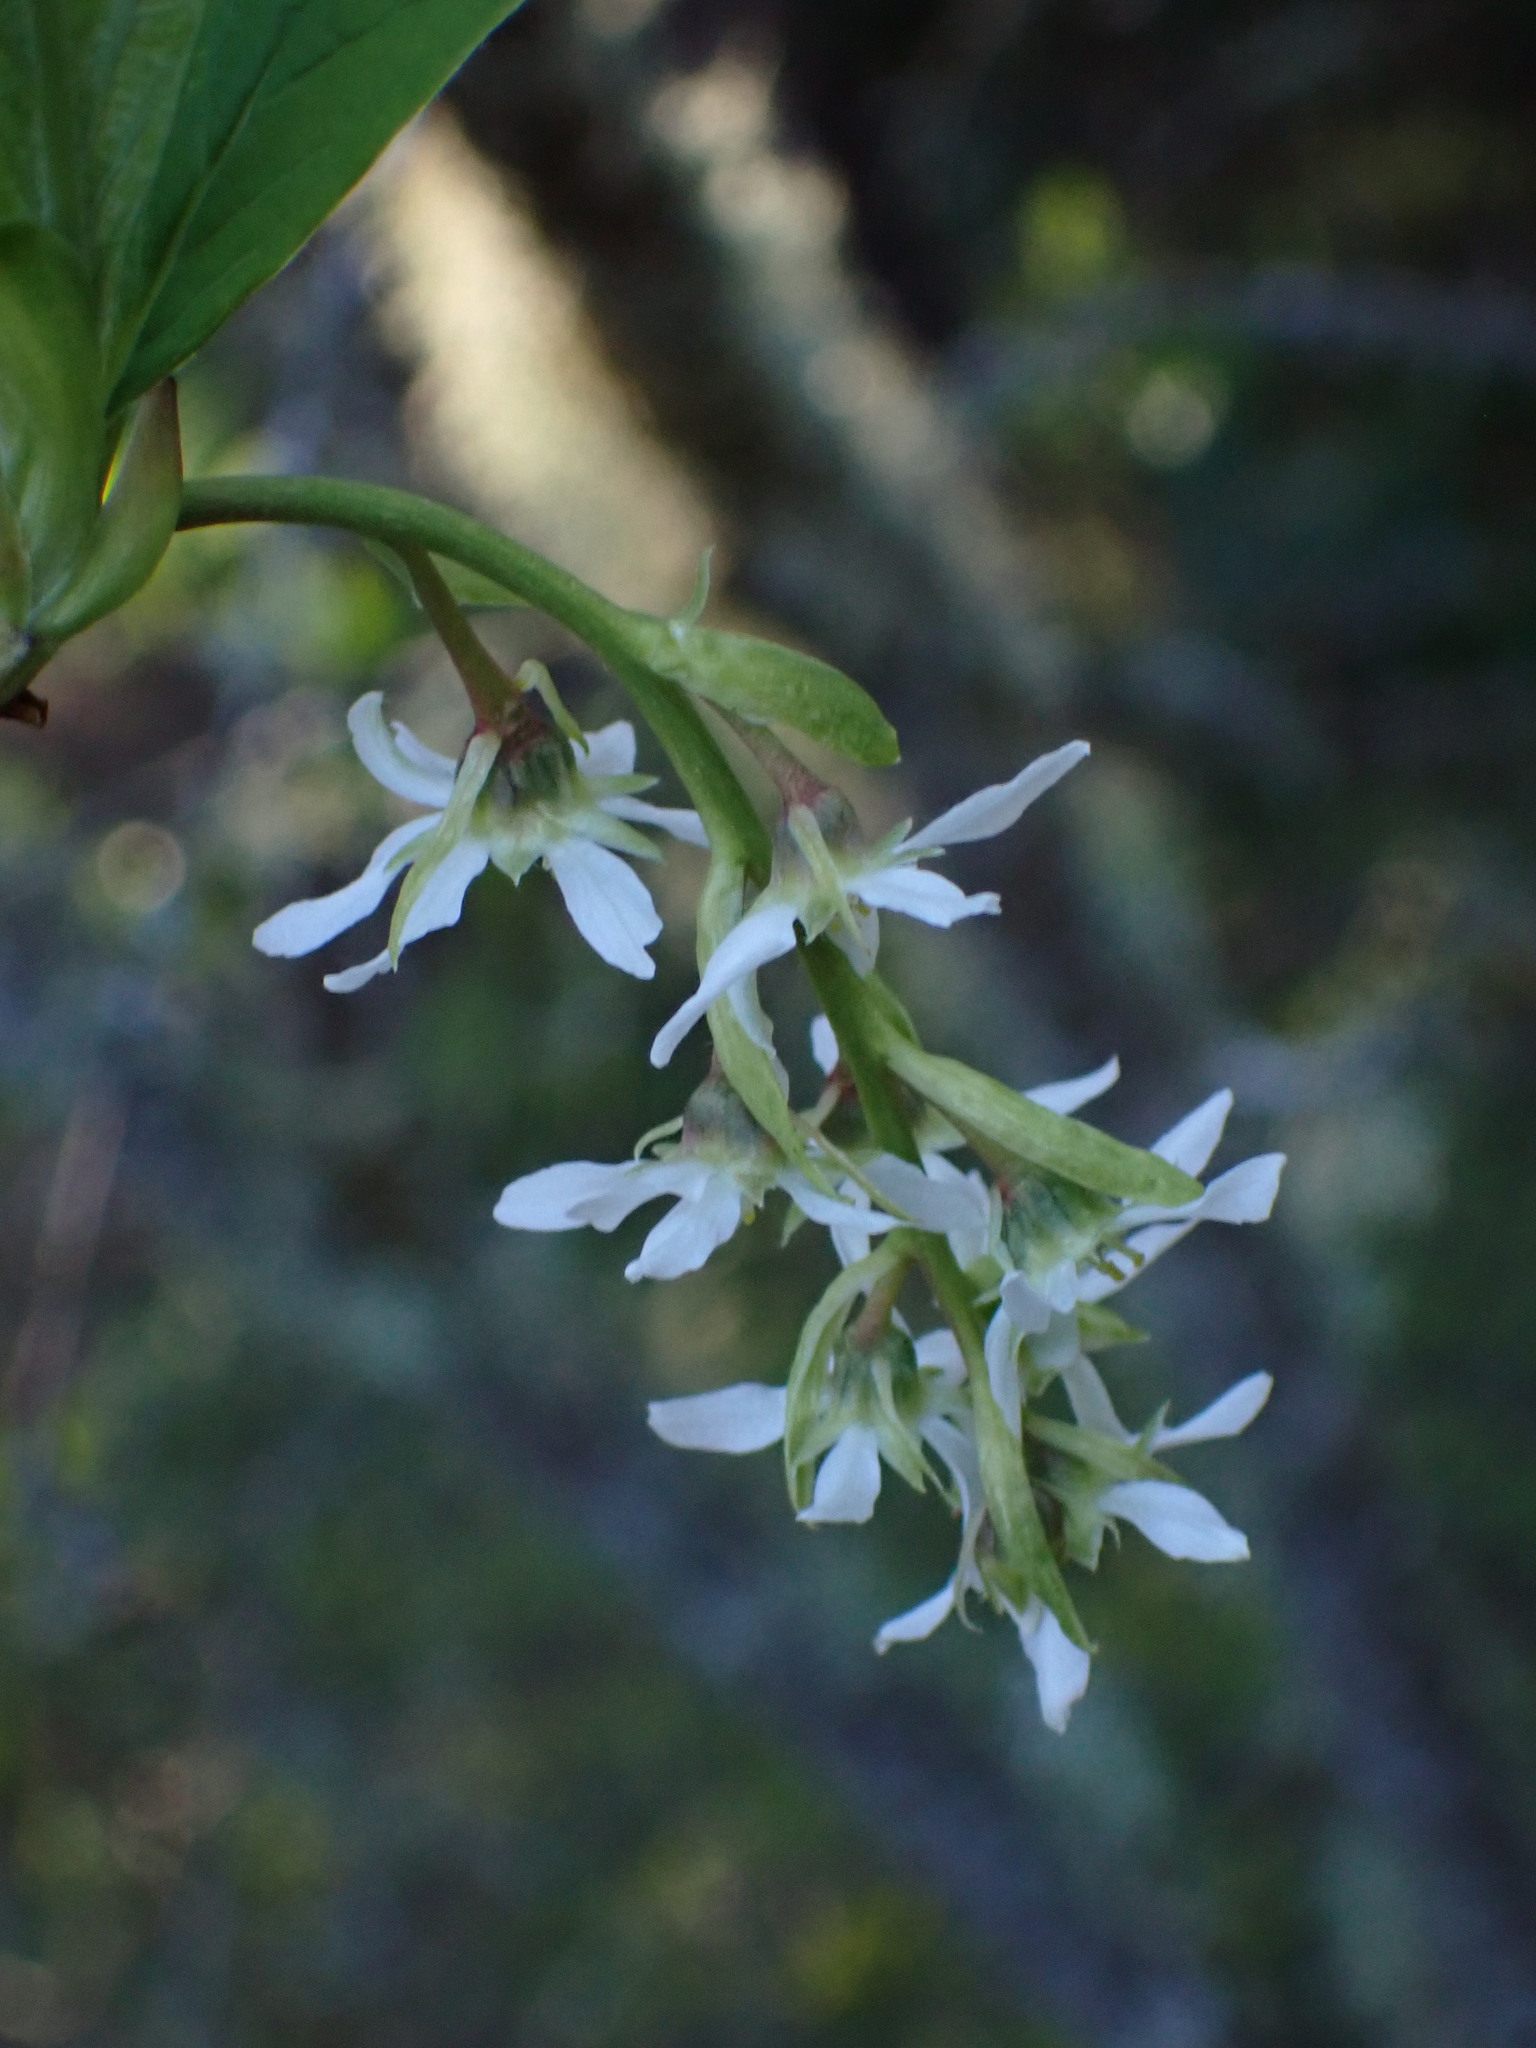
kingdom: Plantae
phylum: Tracheophyta
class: Magnoliopsida
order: Rosales
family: Rosaceae
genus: Oemleria
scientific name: Oemleria cerasiformis
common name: Osoberry
